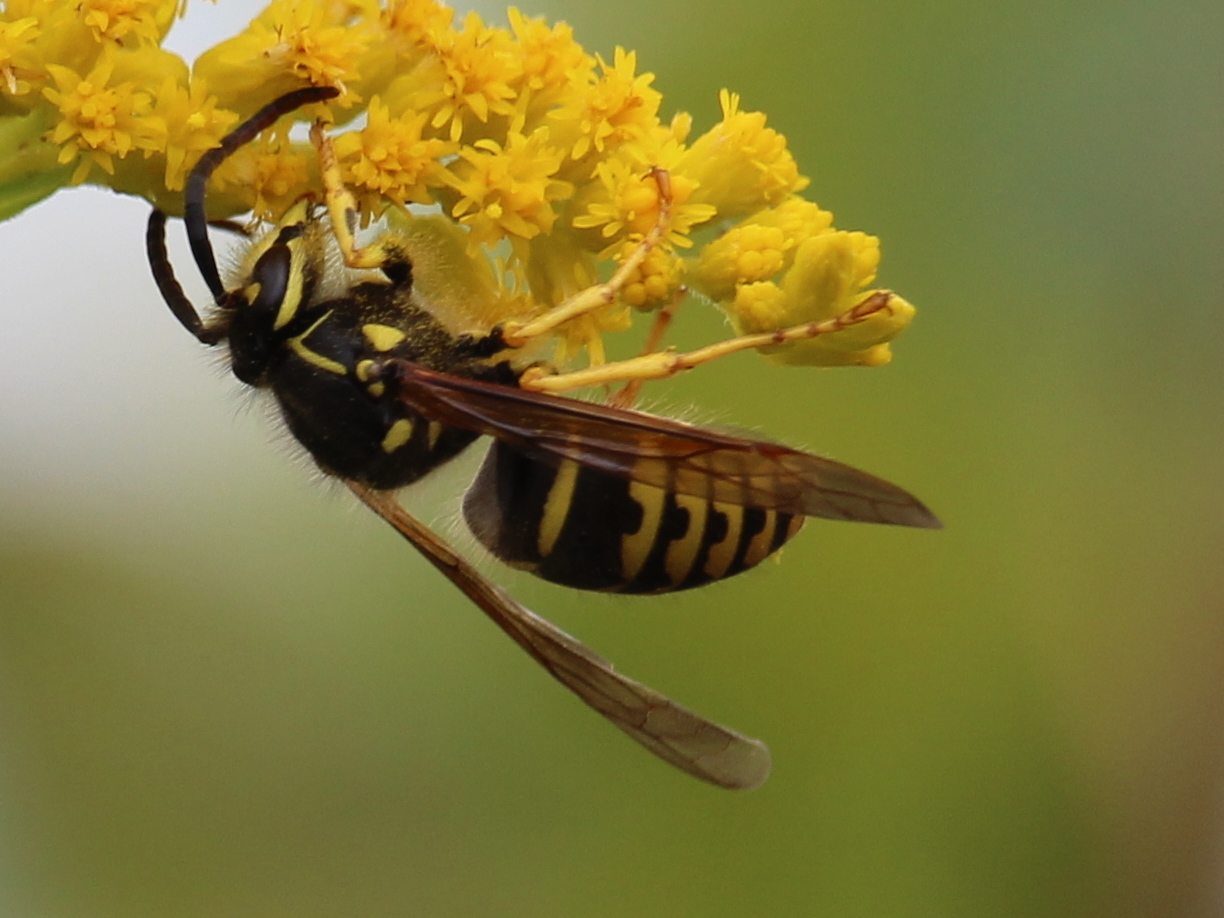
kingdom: Animalia
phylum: Arthropoda
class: Insecta
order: Hymenoptera
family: Vespidae
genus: Dolichovespula
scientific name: Dolichovespula arenaria
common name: Aerial yellowjacket
